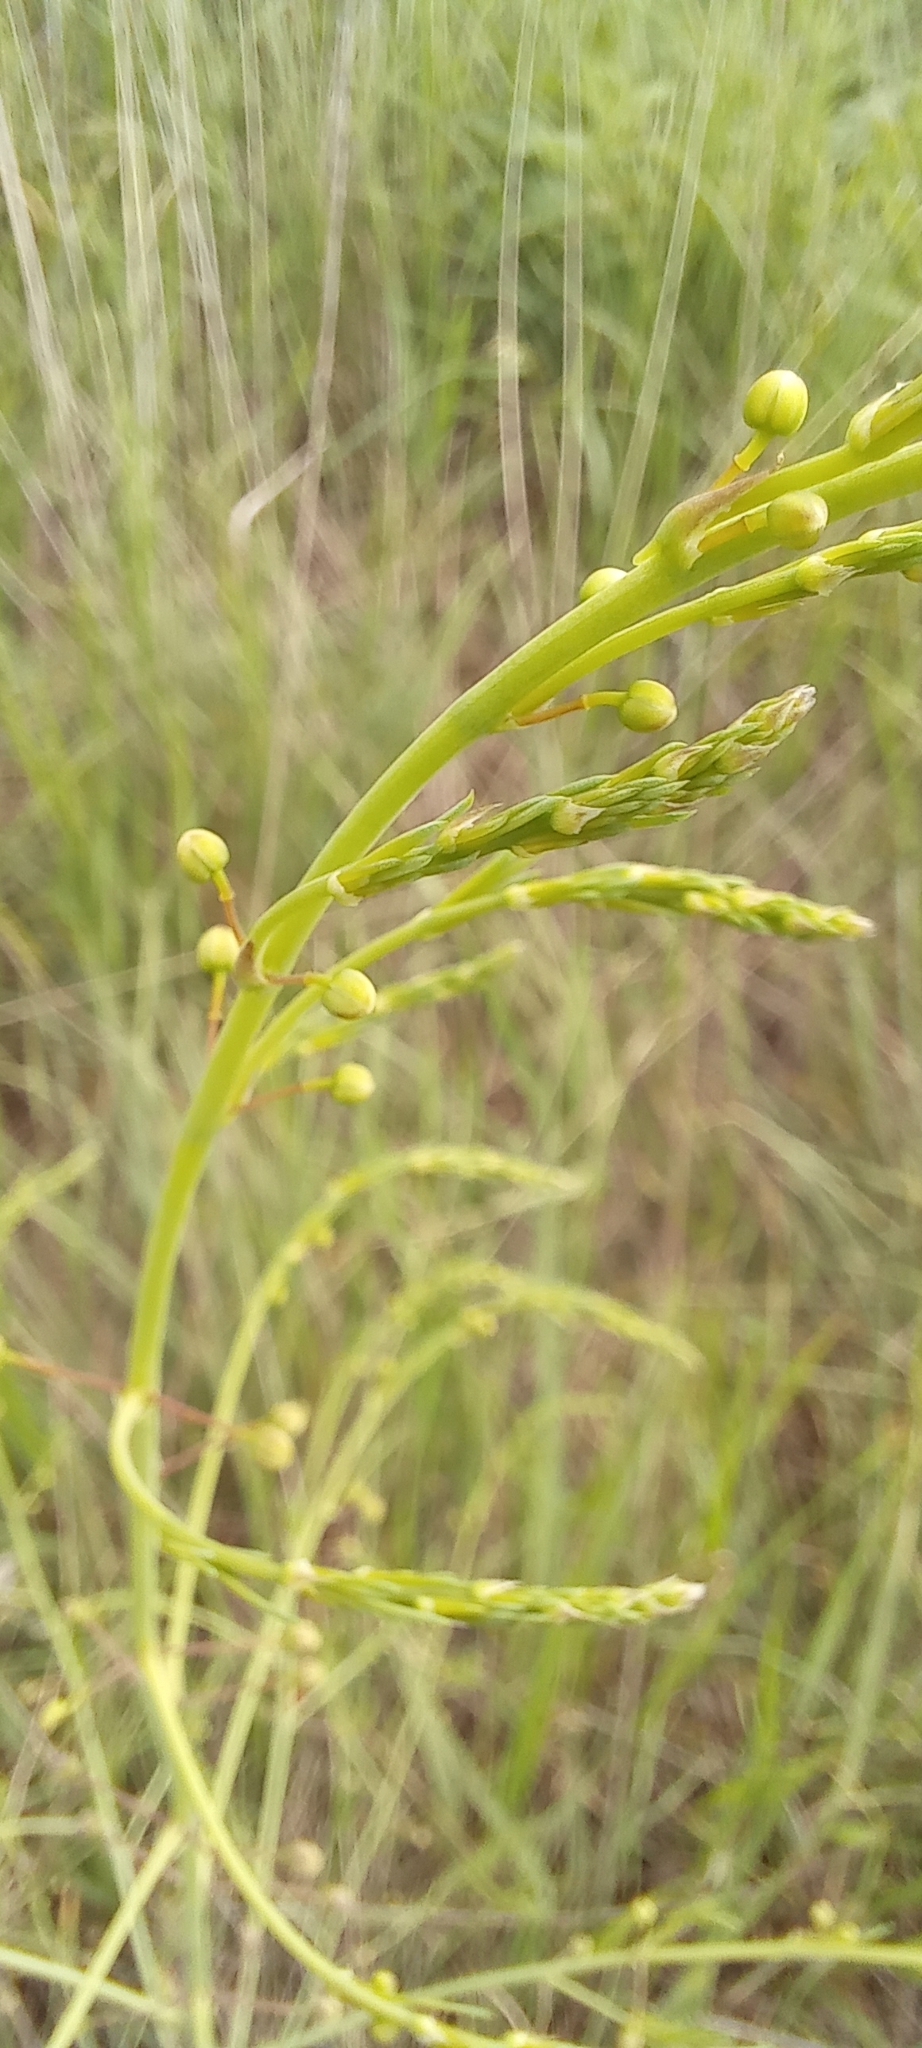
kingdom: Plantae
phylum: Tracheophyta
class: Liliopsida
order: Asparagales
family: Asparagaceae
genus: Asparagus
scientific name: Asparagus officinalis
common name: Garden asparagus
